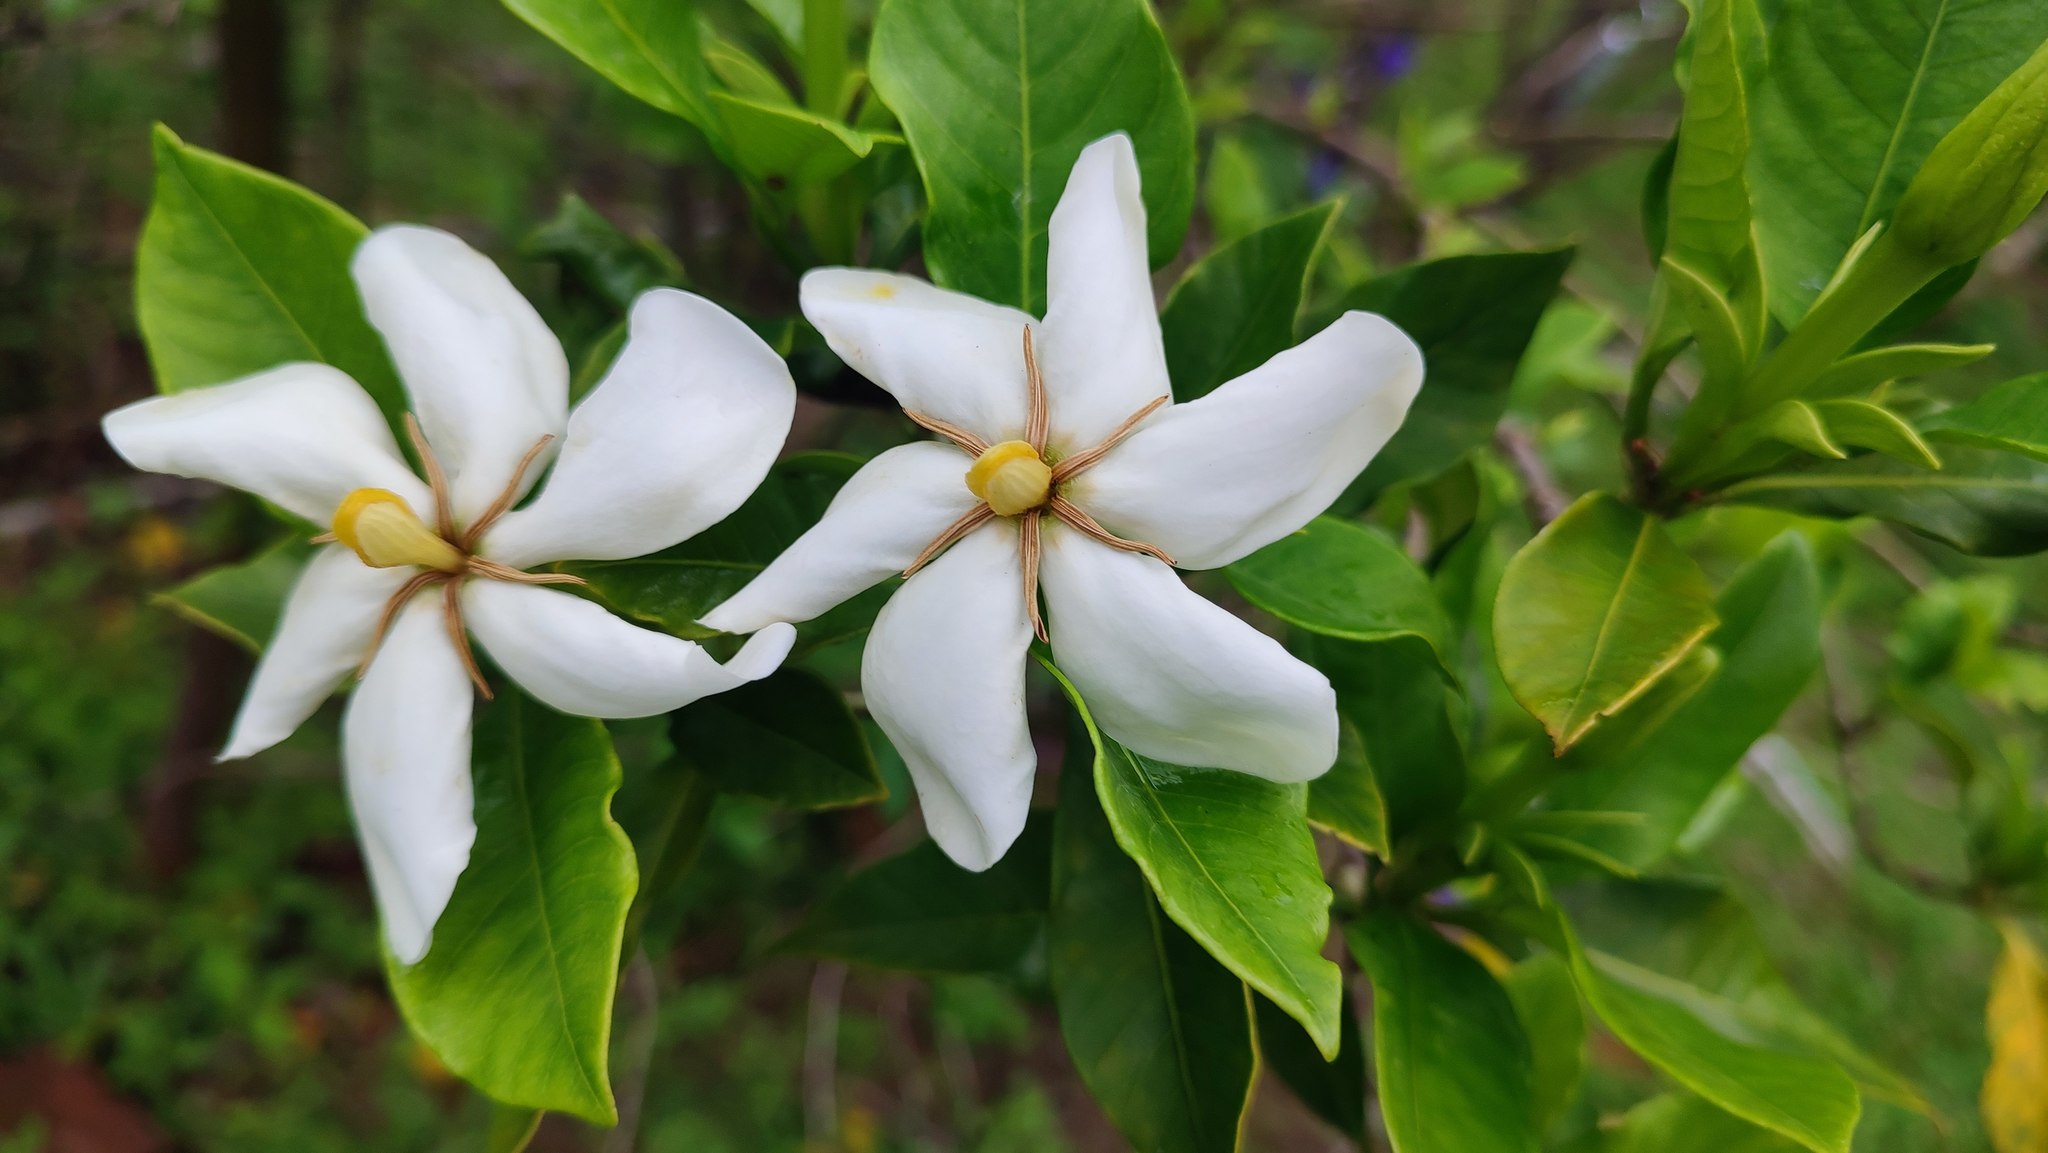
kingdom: Plantae
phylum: Tracheophyta
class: Magnoliopsida
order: Gentianales
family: Rubiaceae
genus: Gardenia
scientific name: Gardenia jasminoides
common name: Cape-jasmine
